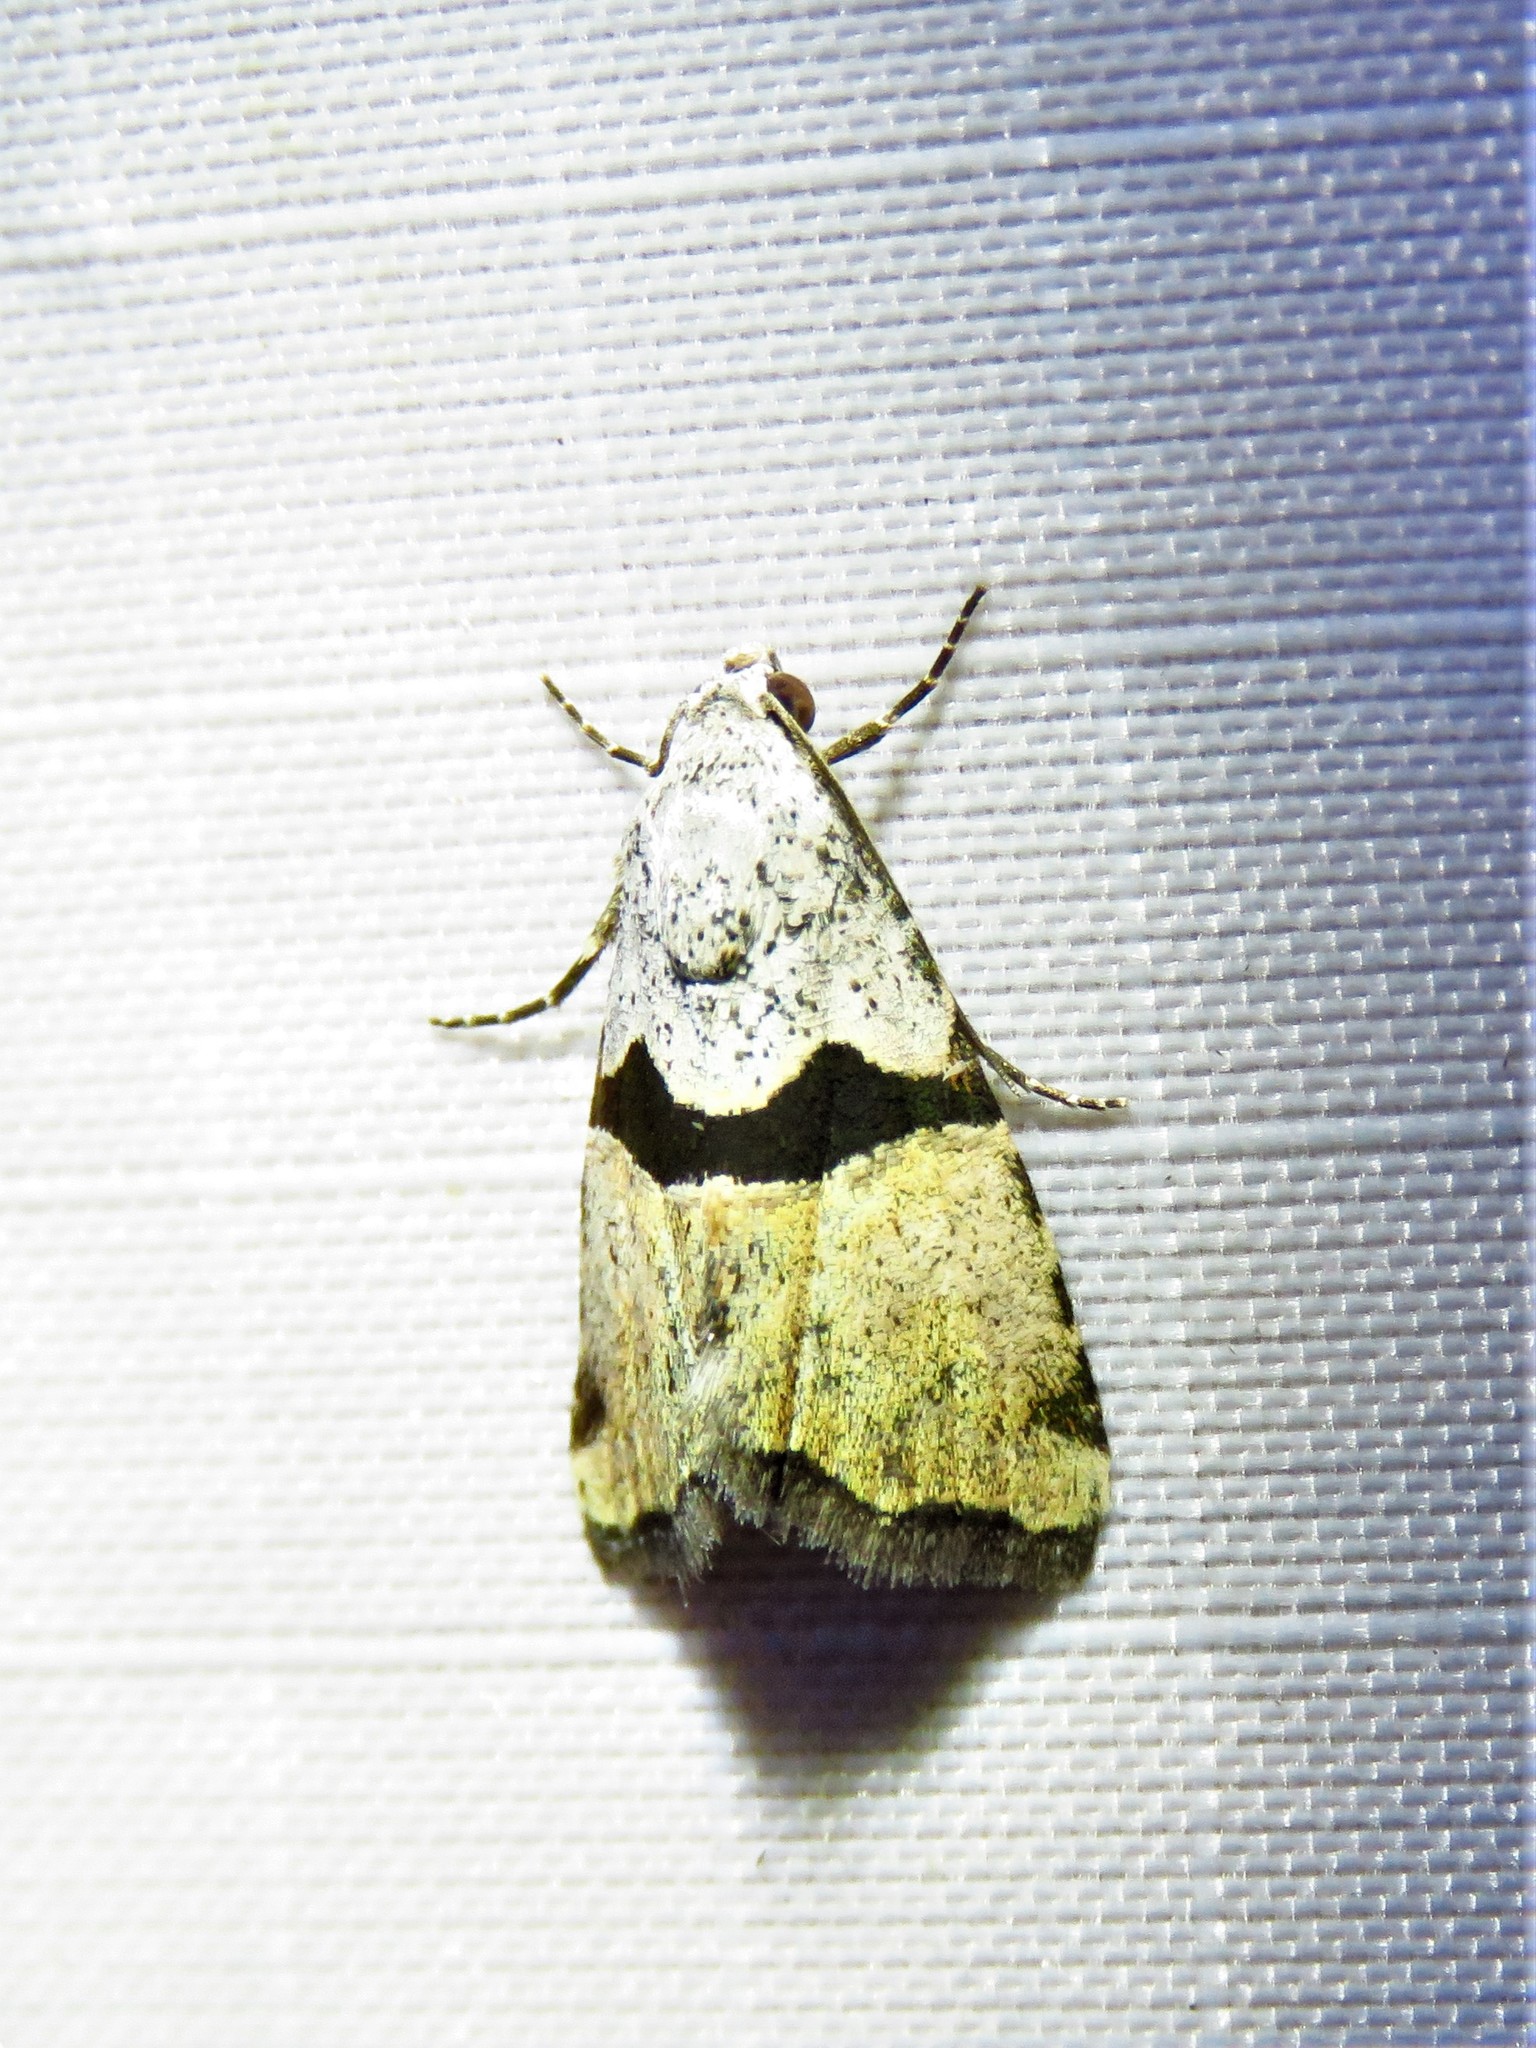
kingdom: Animalia
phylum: Arthropoda
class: Insecta
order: Lepidoptera
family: Noctuidae
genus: Cobubatha
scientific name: Cobubatha orthozona
